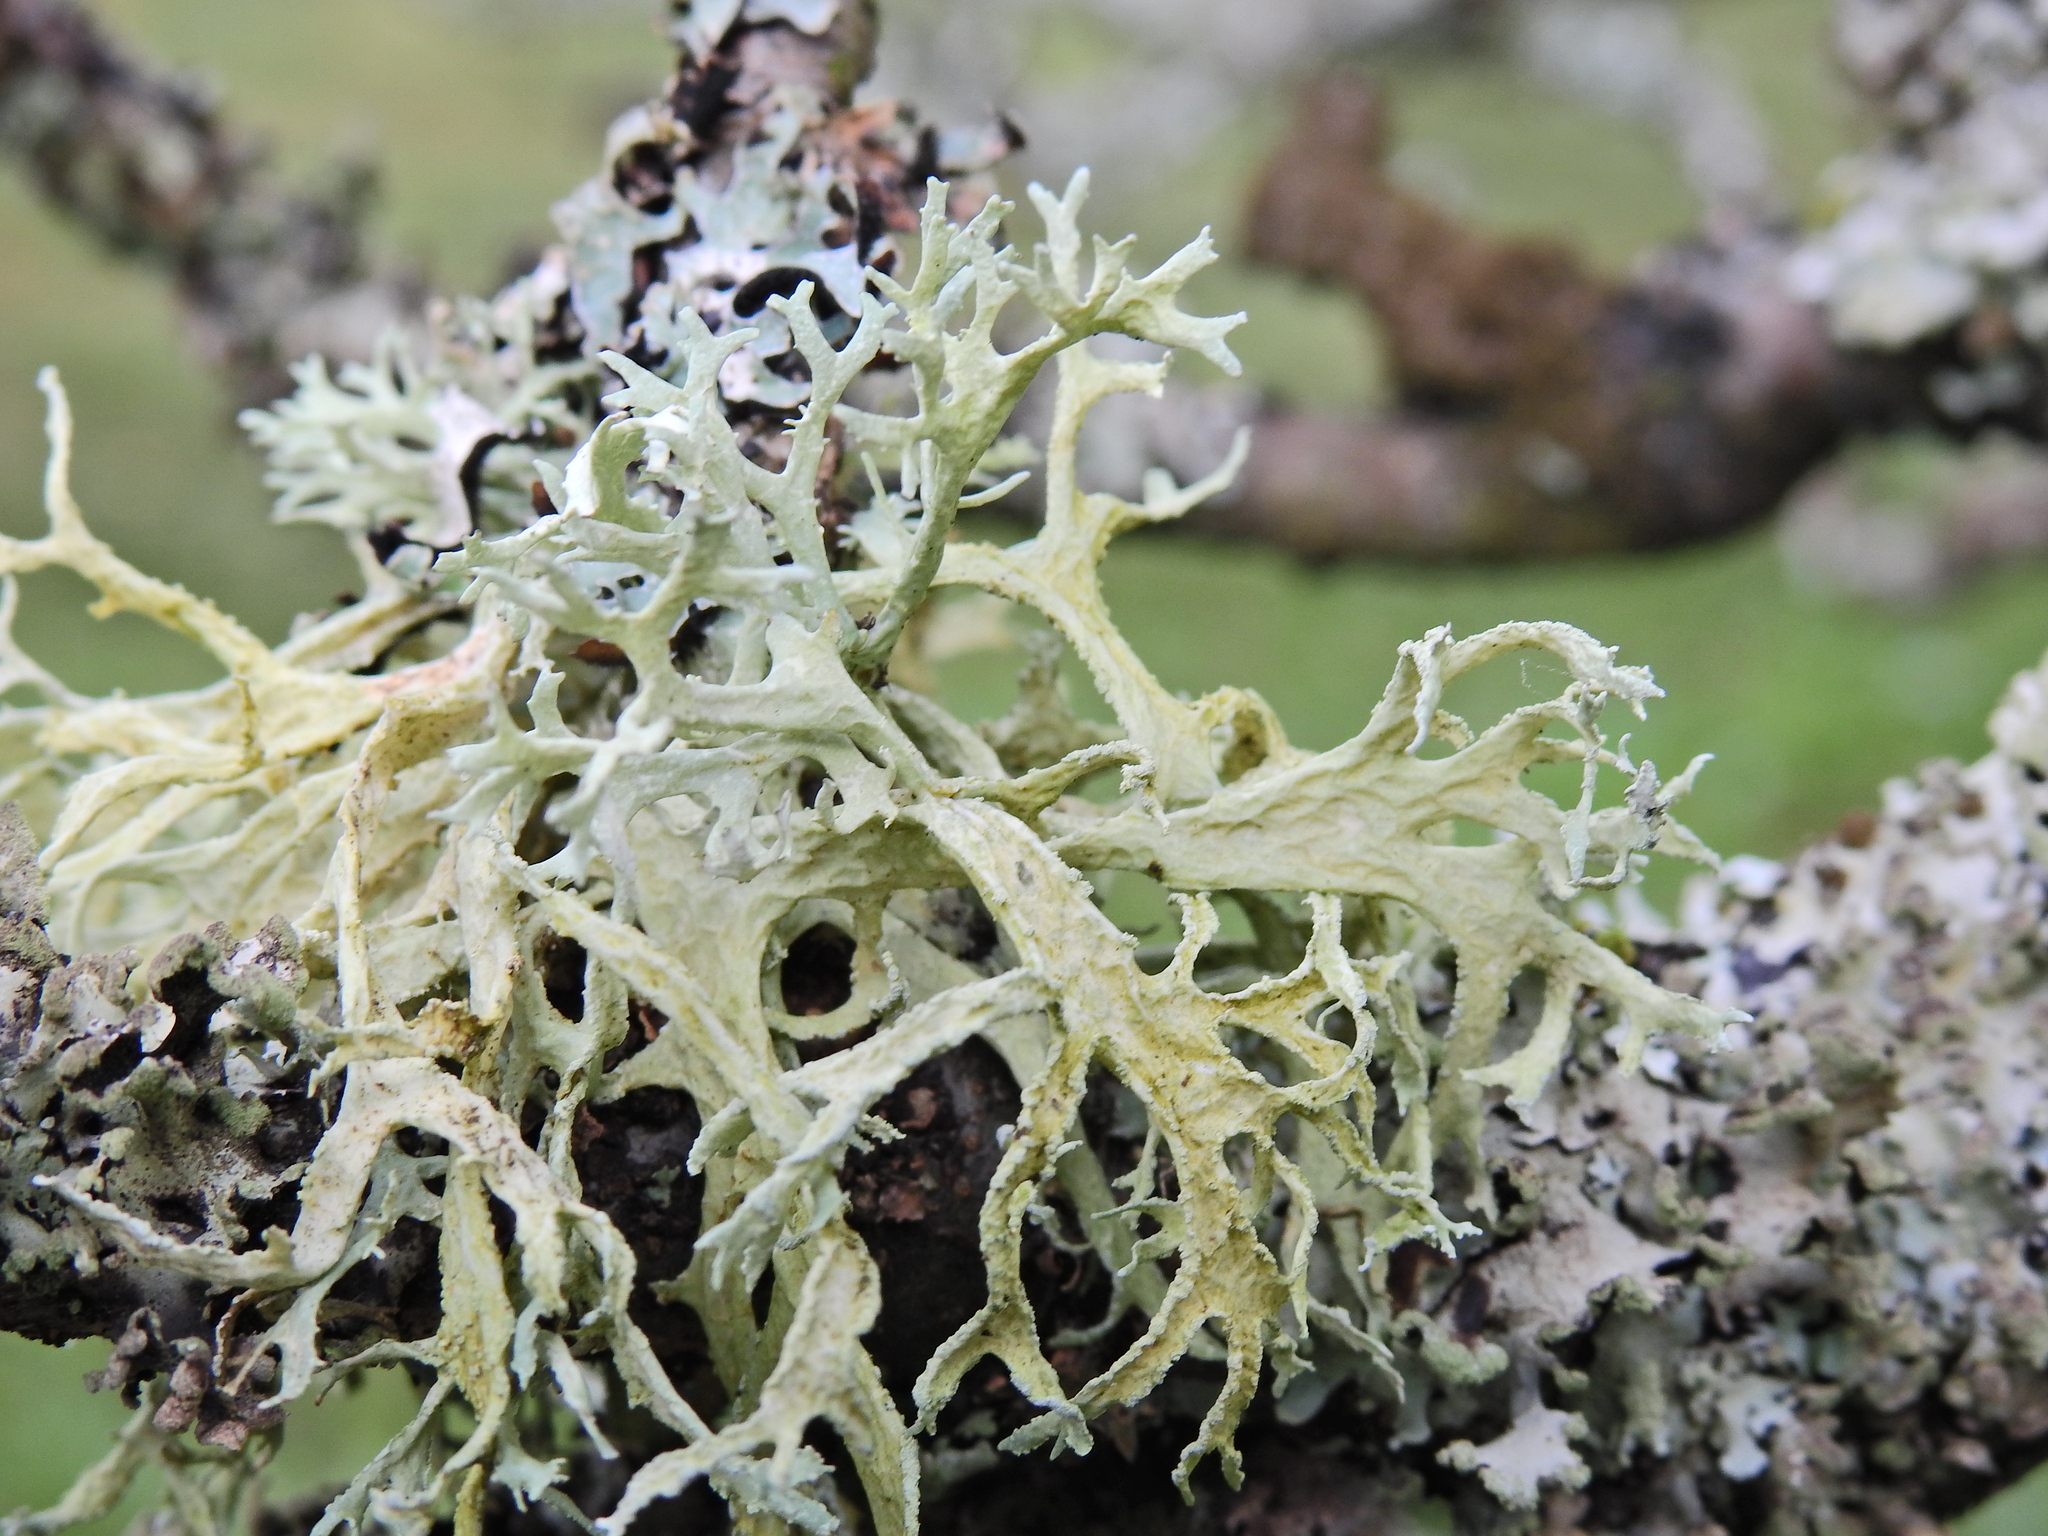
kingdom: Fungi
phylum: Ascomycota
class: Lecanoromycetes
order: Lecanorales
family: Parmeliaceae
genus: Evernia
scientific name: Evernia prunastri
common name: Oak moss
